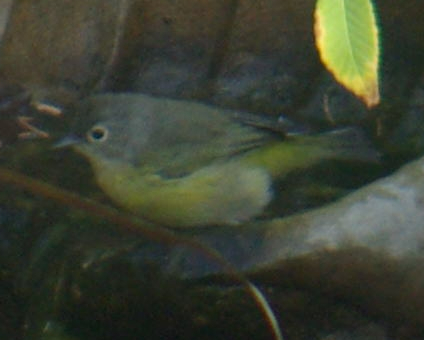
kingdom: Animalia
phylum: Chordata
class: Aves
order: Passeriformes
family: Parulidae
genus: Leiothlypis
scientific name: Leiothlypis ruficapilla
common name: Nashville warbler
